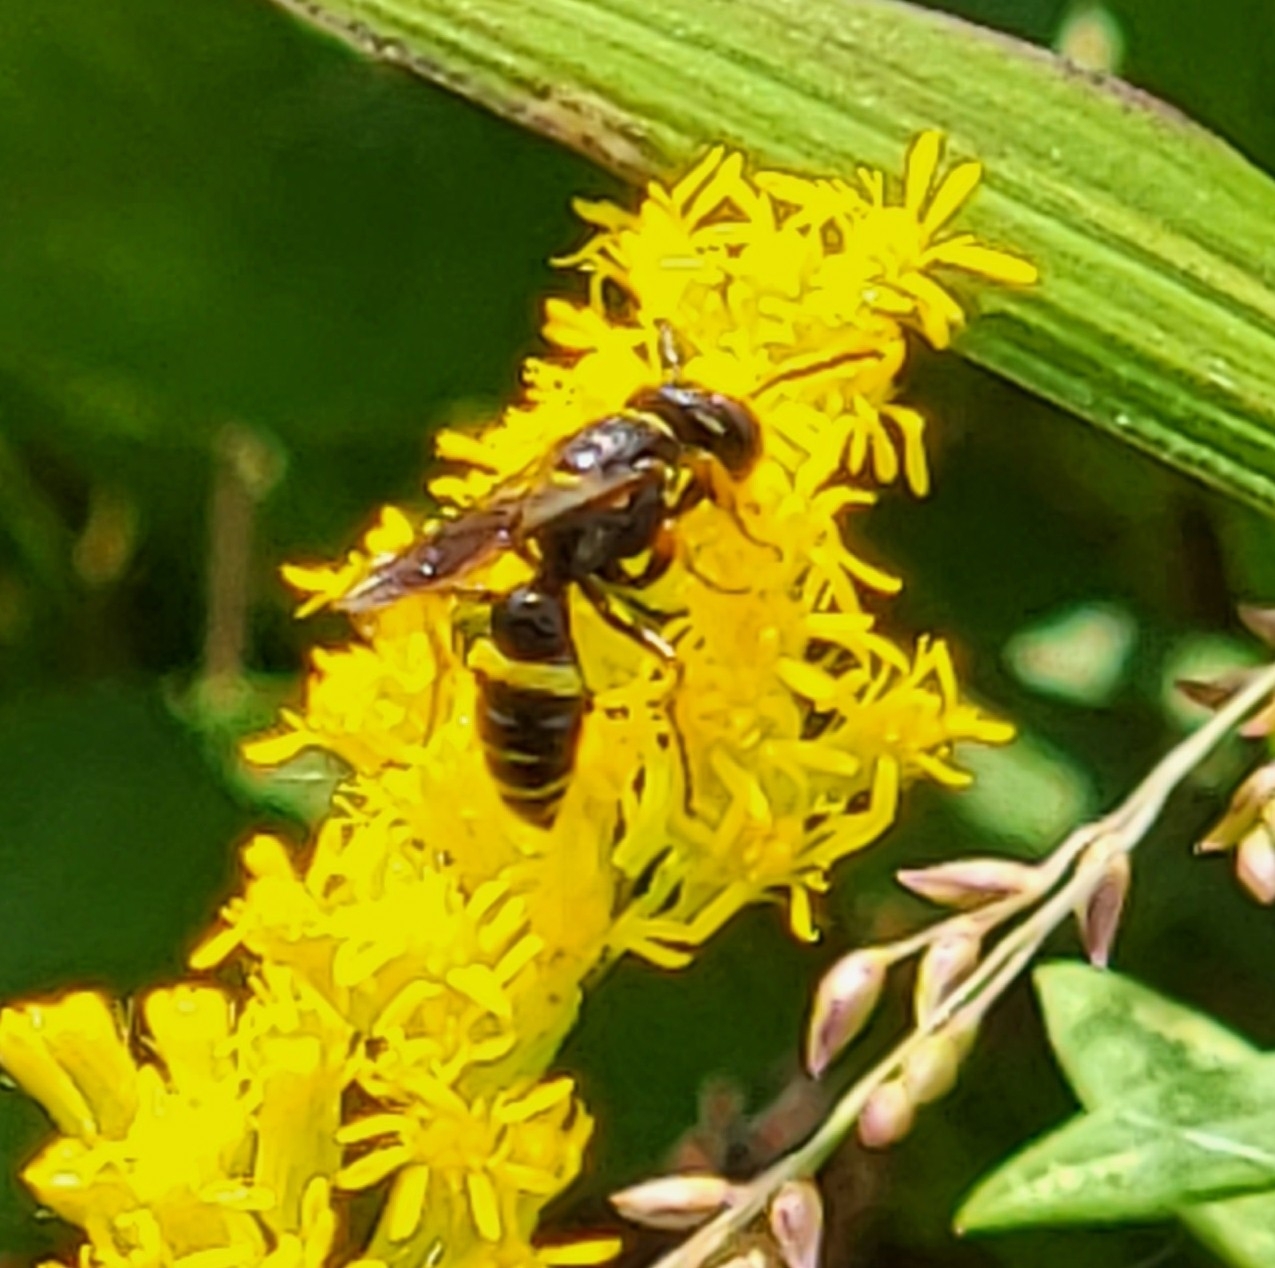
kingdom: Animalia
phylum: Arthropoda
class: Insecta
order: Hymenoptera
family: Crabronidae
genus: Philanthus
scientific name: Philanthus gibbosus
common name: Humped beewolf
